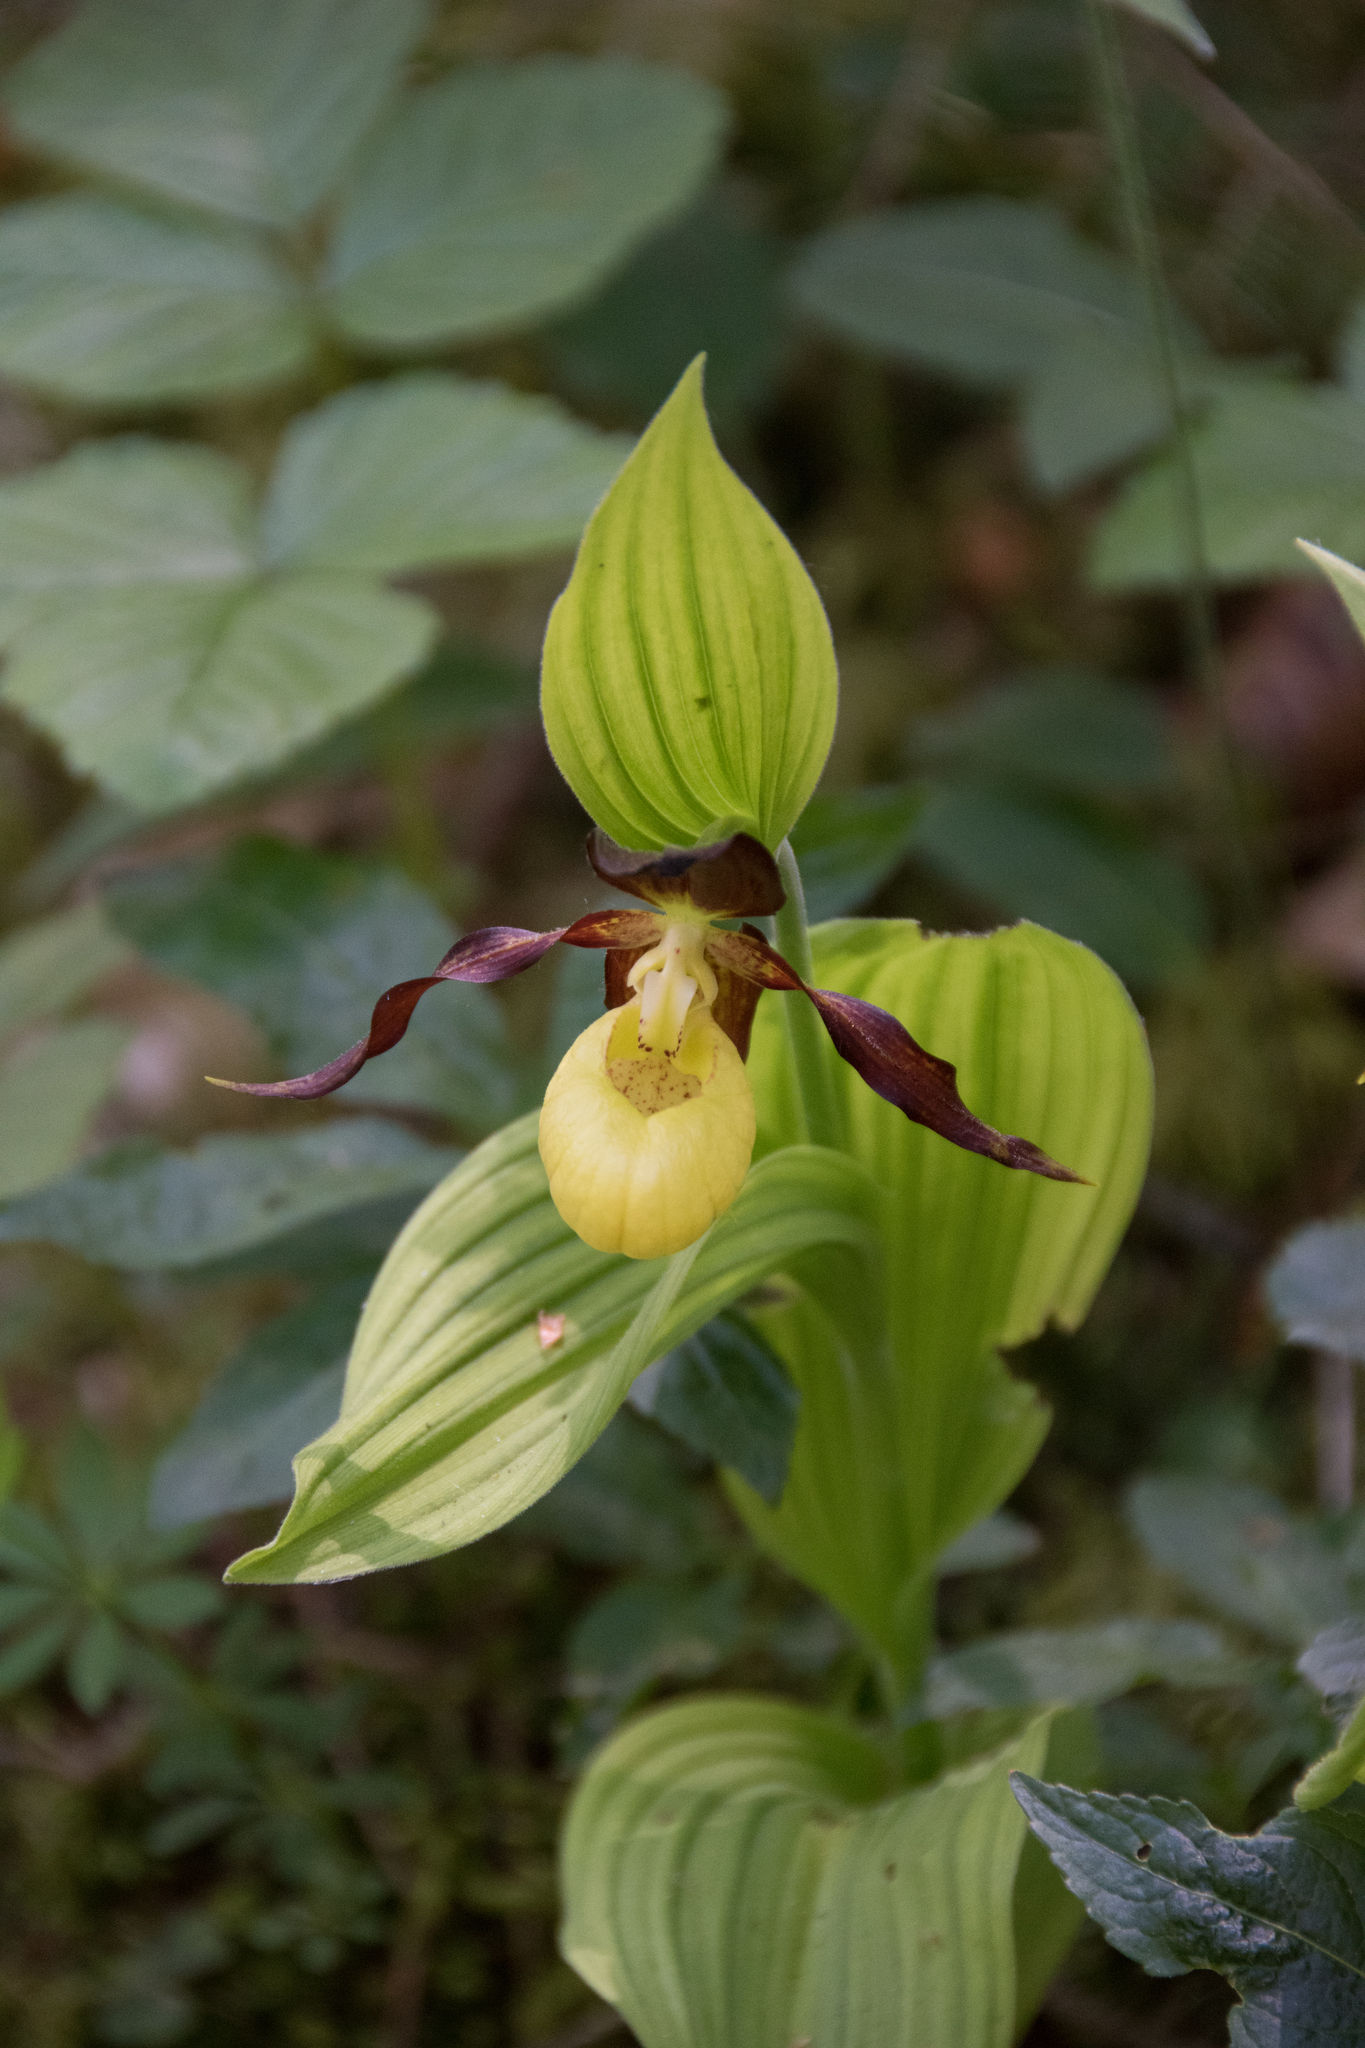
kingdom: Plantae
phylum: Tracheophyta
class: Liliopsida
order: Asparagales
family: Orchidaceae
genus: Cypripedium
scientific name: Cypripedium calceolus
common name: Lady's-slipper
